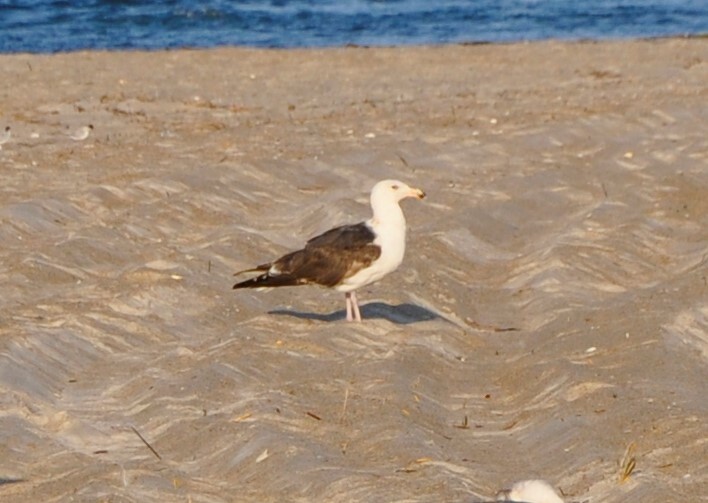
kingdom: Animalia
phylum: Chordata
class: Aves
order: Charadriiformes
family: Laridae
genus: Larus
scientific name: Larus marinus
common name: Great black-backed gull
